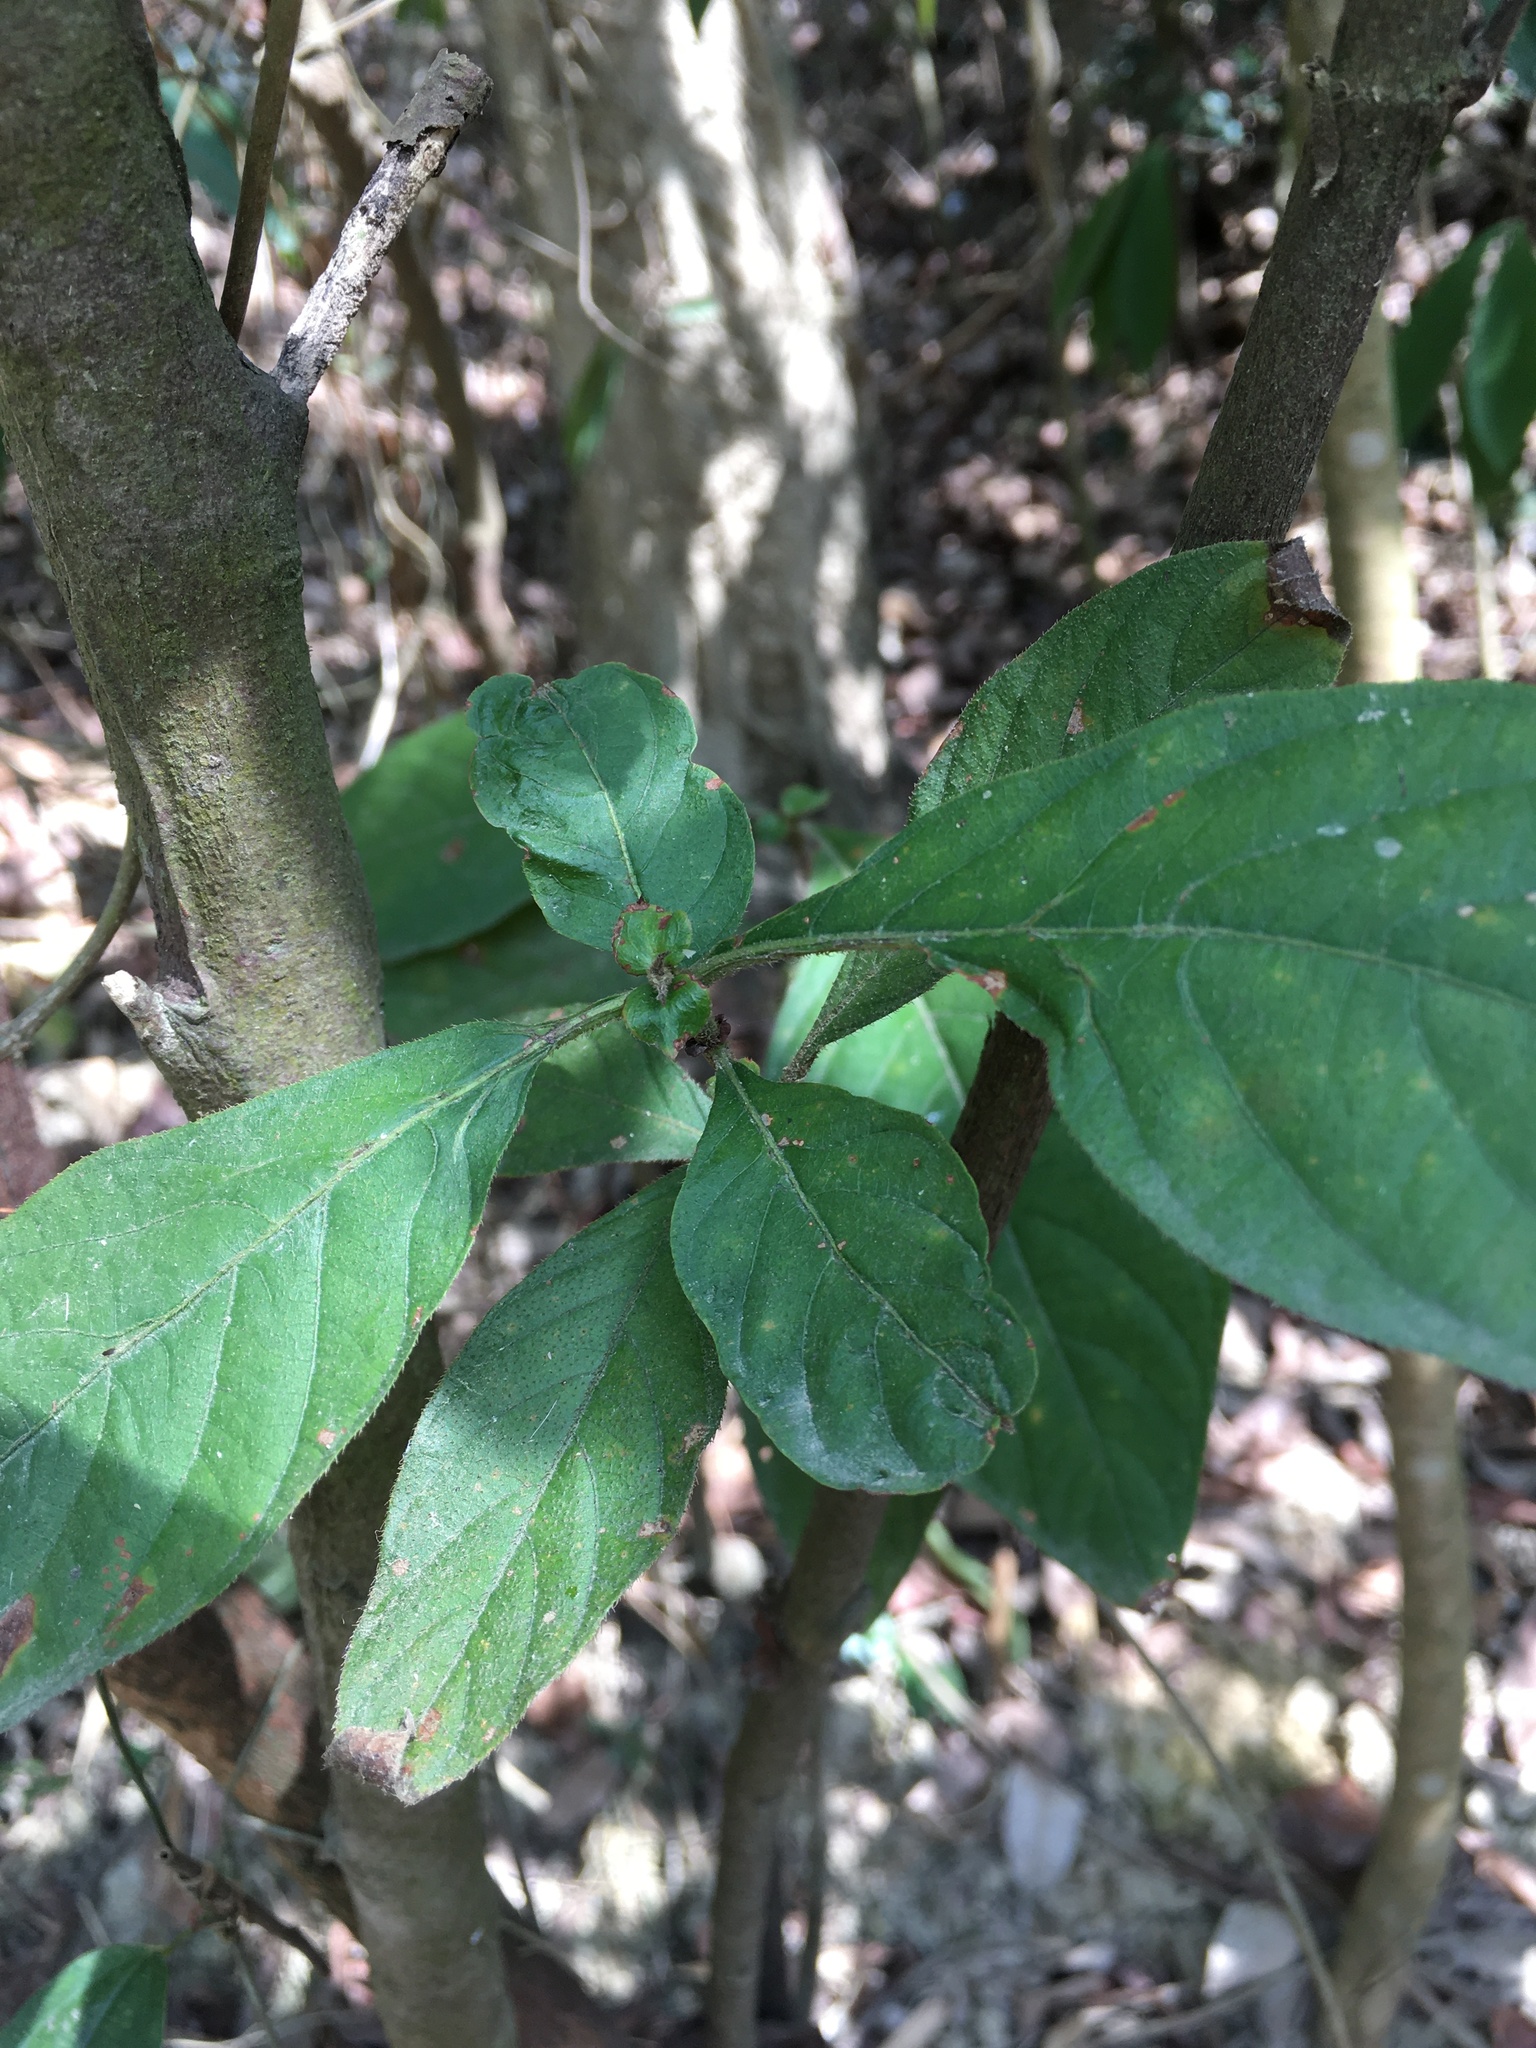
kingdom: Plantae
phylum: Tracheophyta
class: Magnoliopsida
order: Gentianales
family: Rubiaceae
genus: Wendlandia
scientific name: Wendlandia uvariifolia
